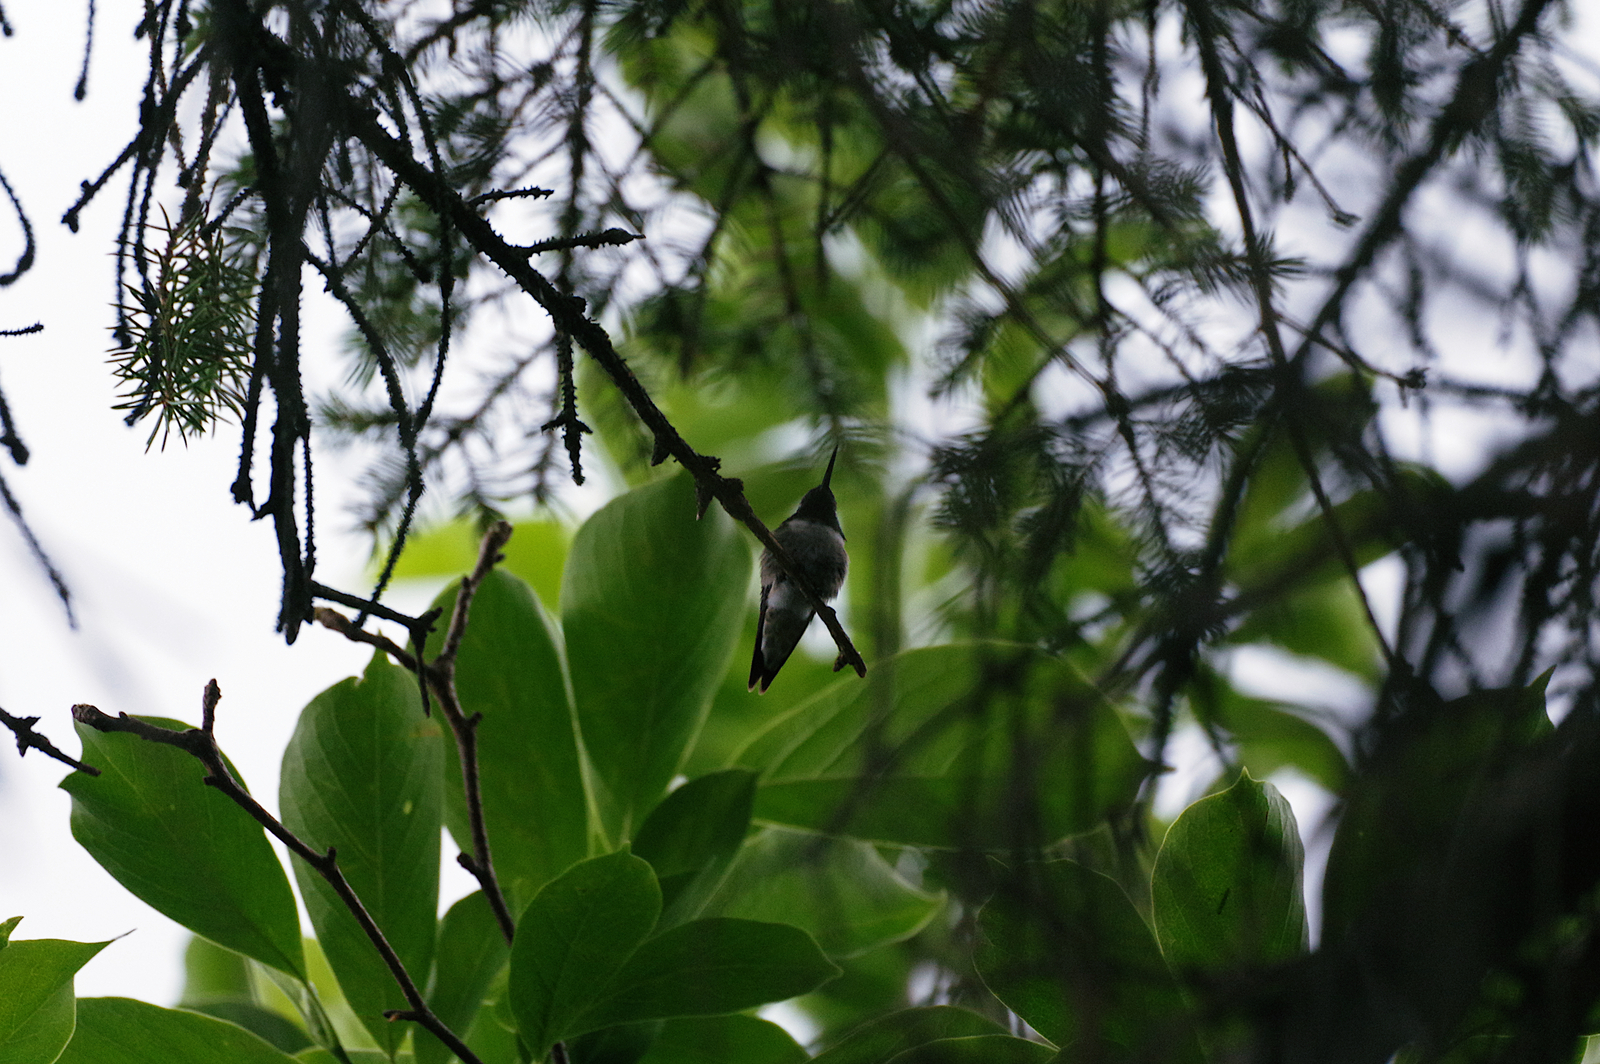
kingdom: Animalia
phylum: Chordata
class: Aves
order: Apodiformes
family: Trochilidae
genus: Archilochus
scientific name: Archilochus colubris
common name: Ruby-throated hummingbird
